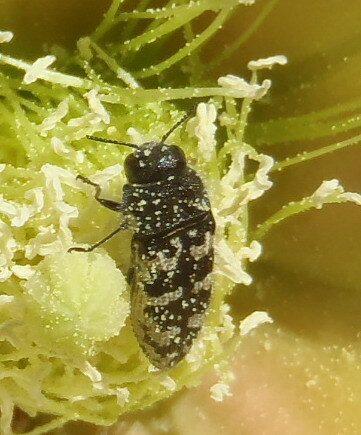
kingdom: Animalia
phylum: Arthropoda
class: Insecta
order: Coleoptera
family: Buprestidae
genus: Acmaeodera
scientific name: Acmaeodera bowditchi
